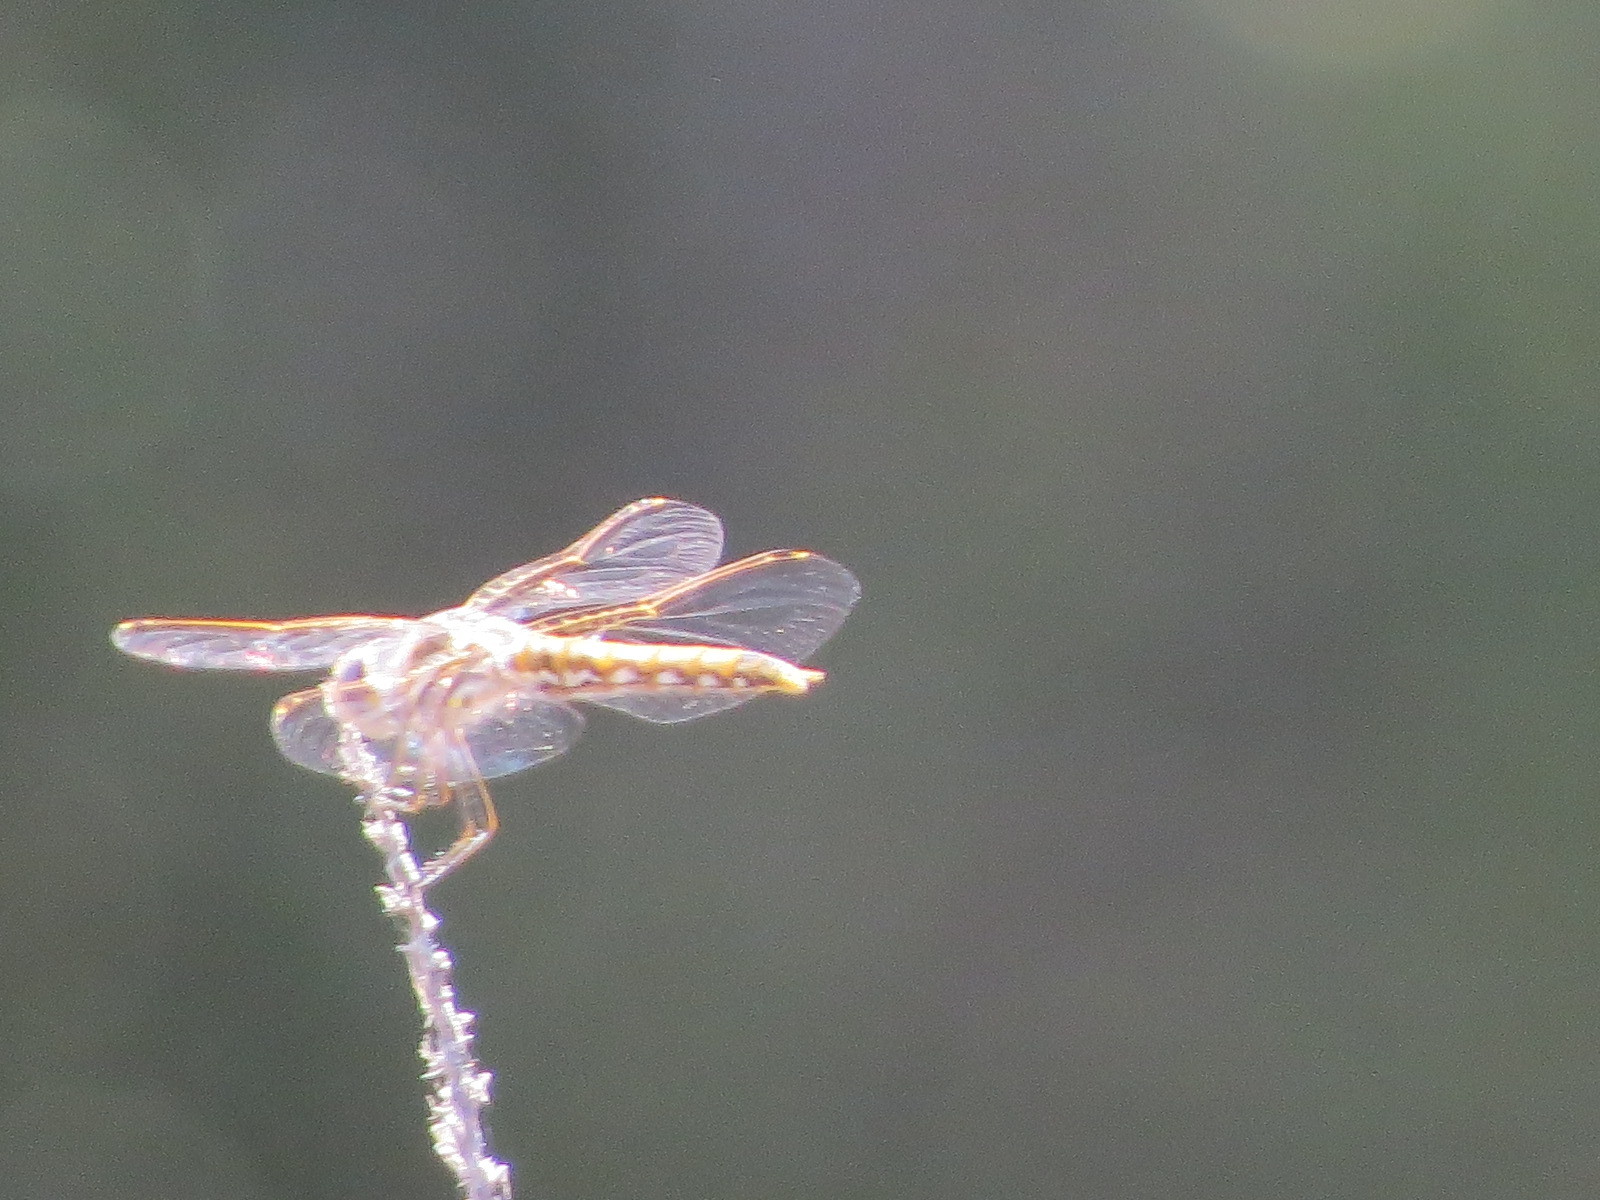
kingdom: Animalia
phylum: Arthropoda
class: Insecta
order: Odonata
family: Libellulidae
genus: Sympetrum
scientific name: Sympetrum corruptum
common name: Variegated meadowhawk
